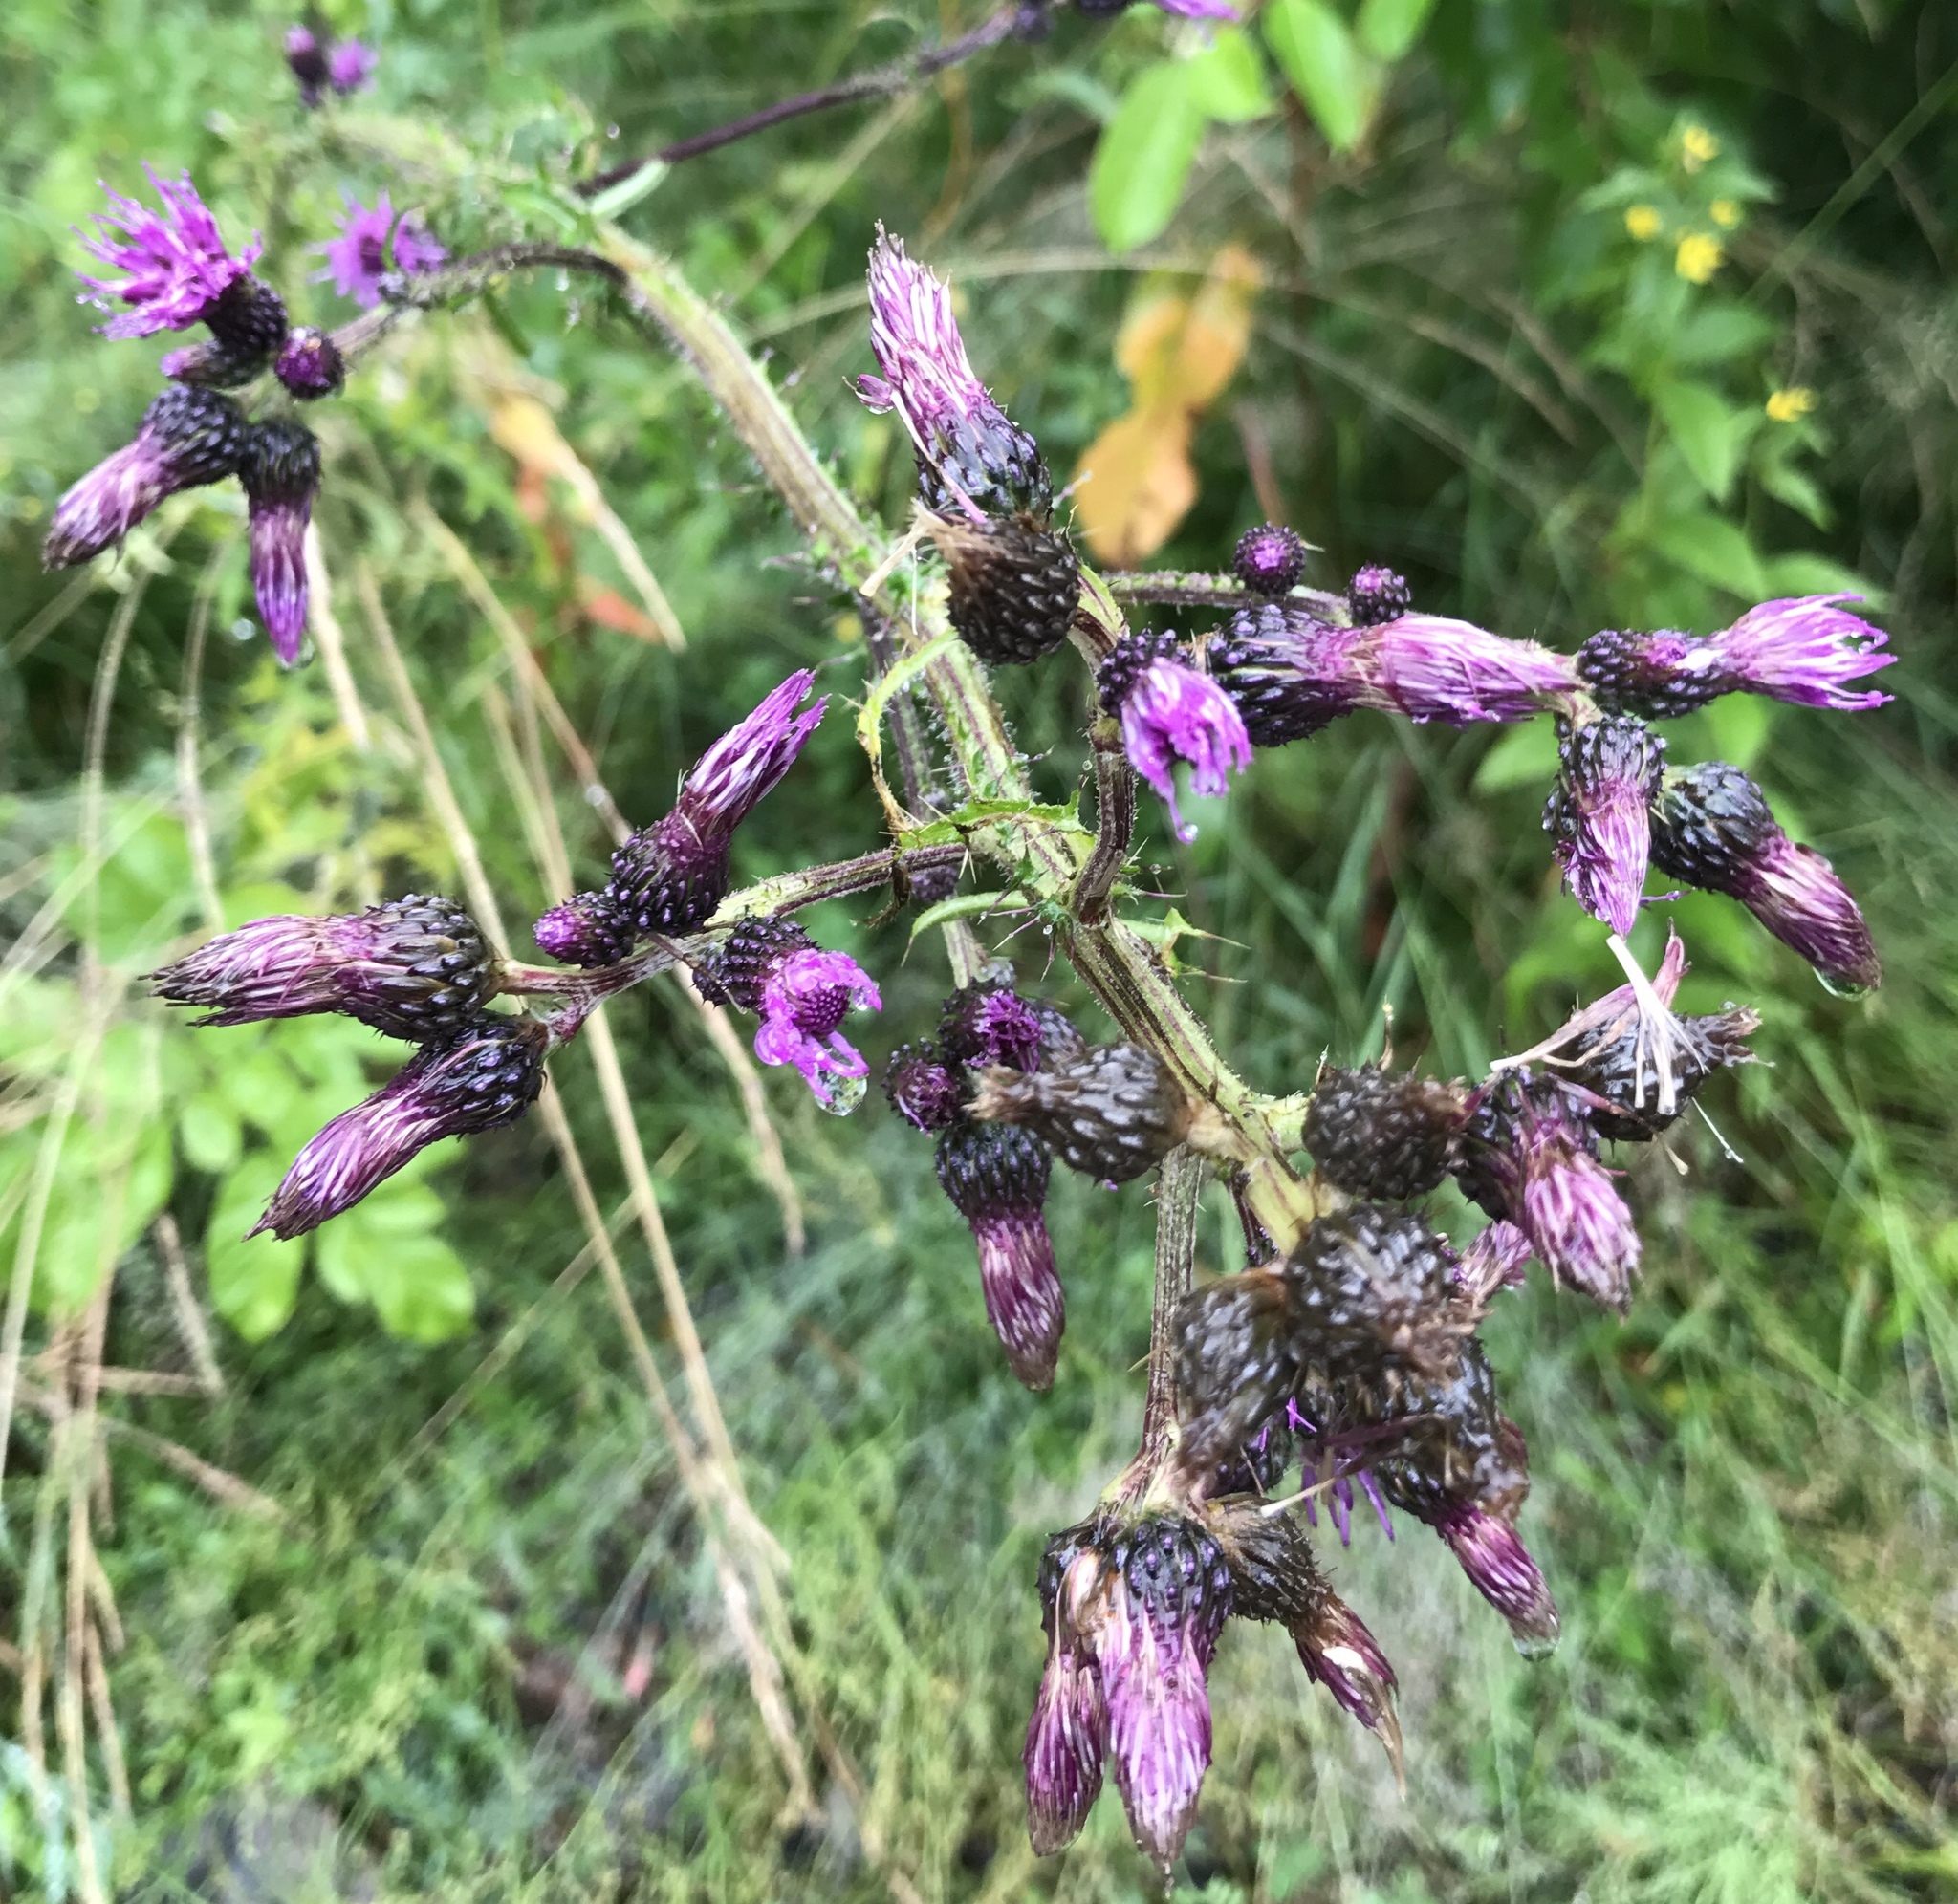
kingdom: Plantae
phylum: Tracheophyta
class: Magnoliopsida
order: Asterales
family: Asteraceae
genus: Cirsium
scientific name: Cirsium palustre
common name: Marsh thistle
